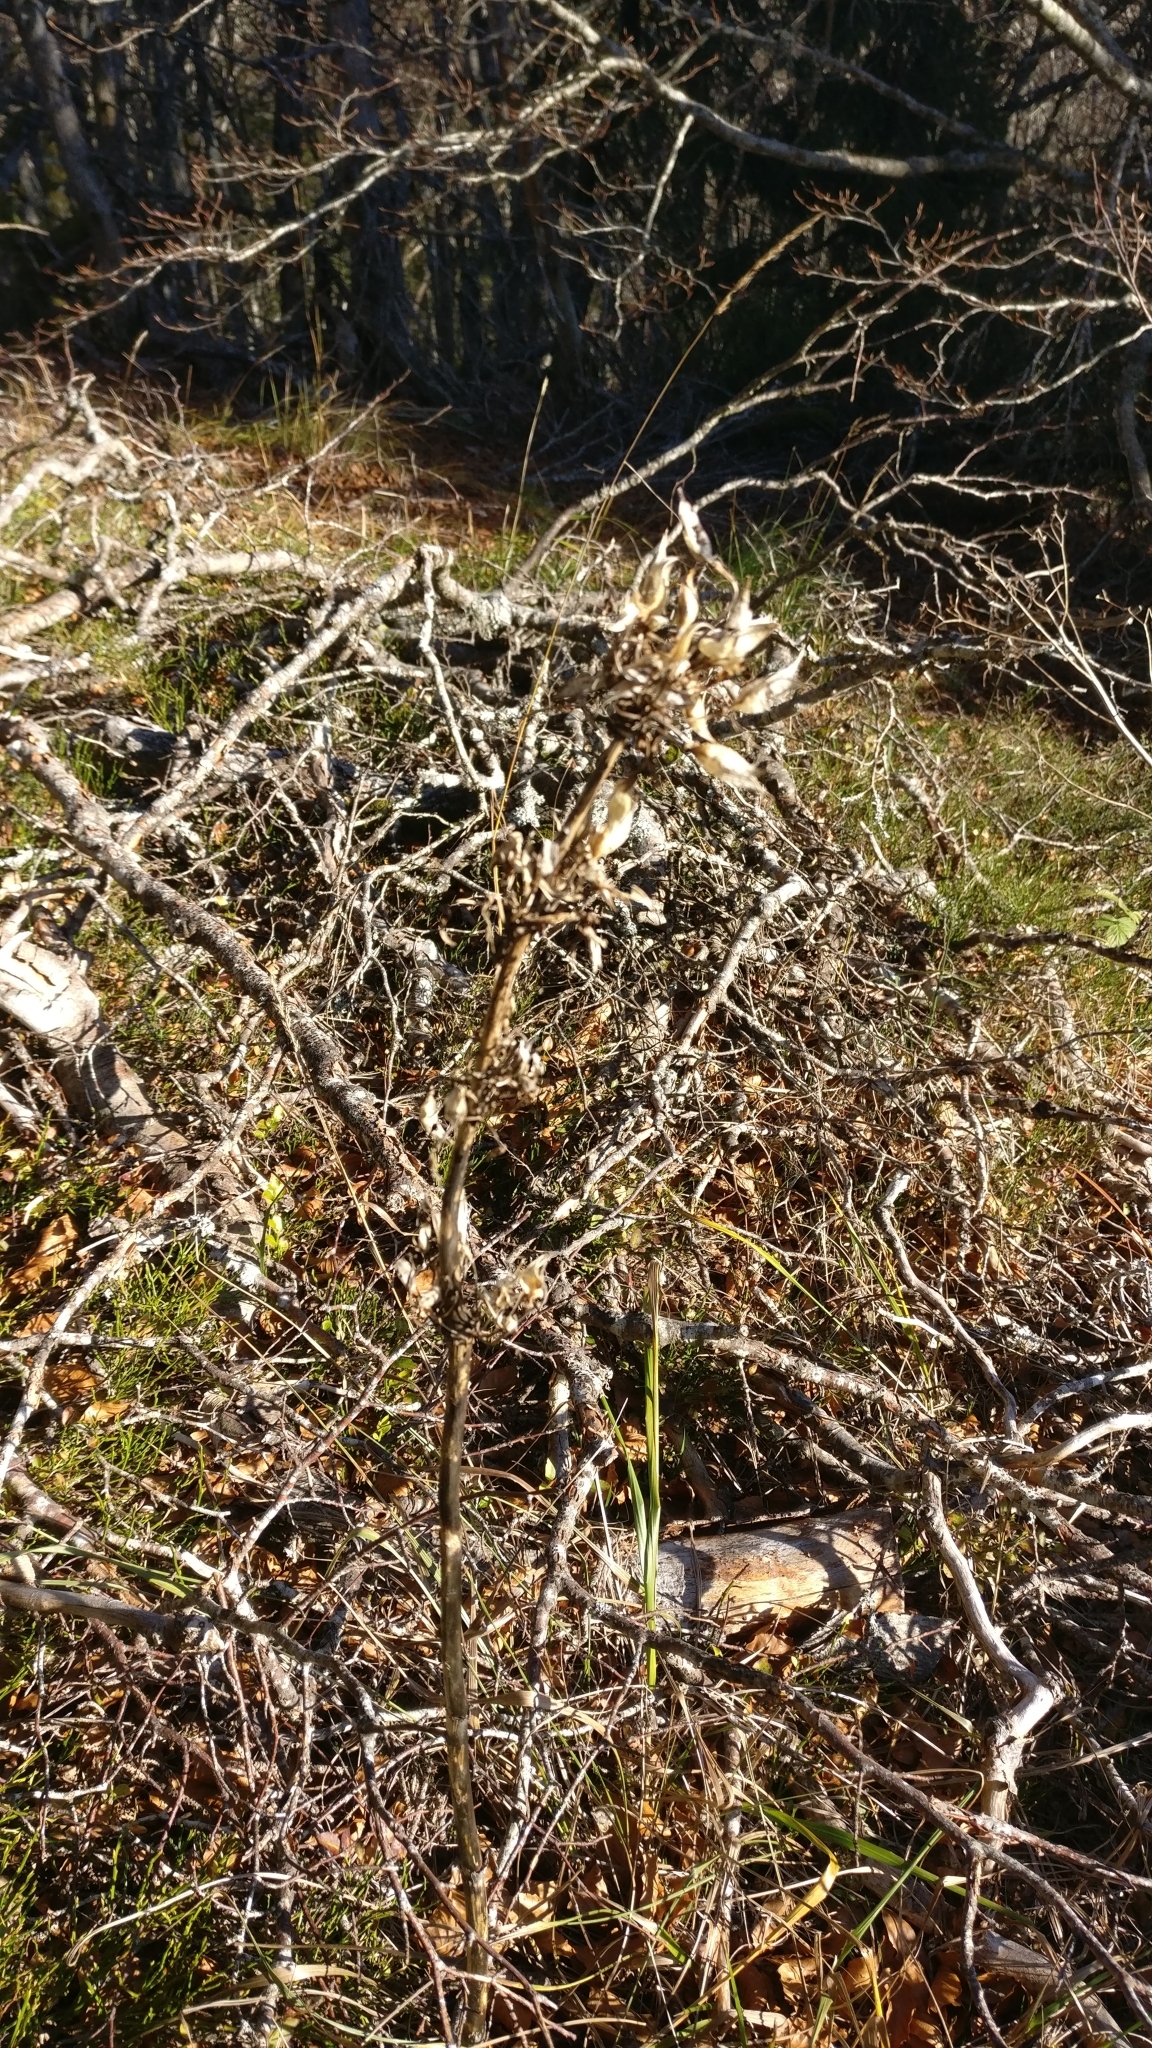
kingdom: Plantae
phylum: Tracheophyta
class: Magnoliopsida
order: Gentianales
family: Gentianaceae
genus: Gentiana
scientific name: Gentiana lutea
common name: Great yellow gentian
